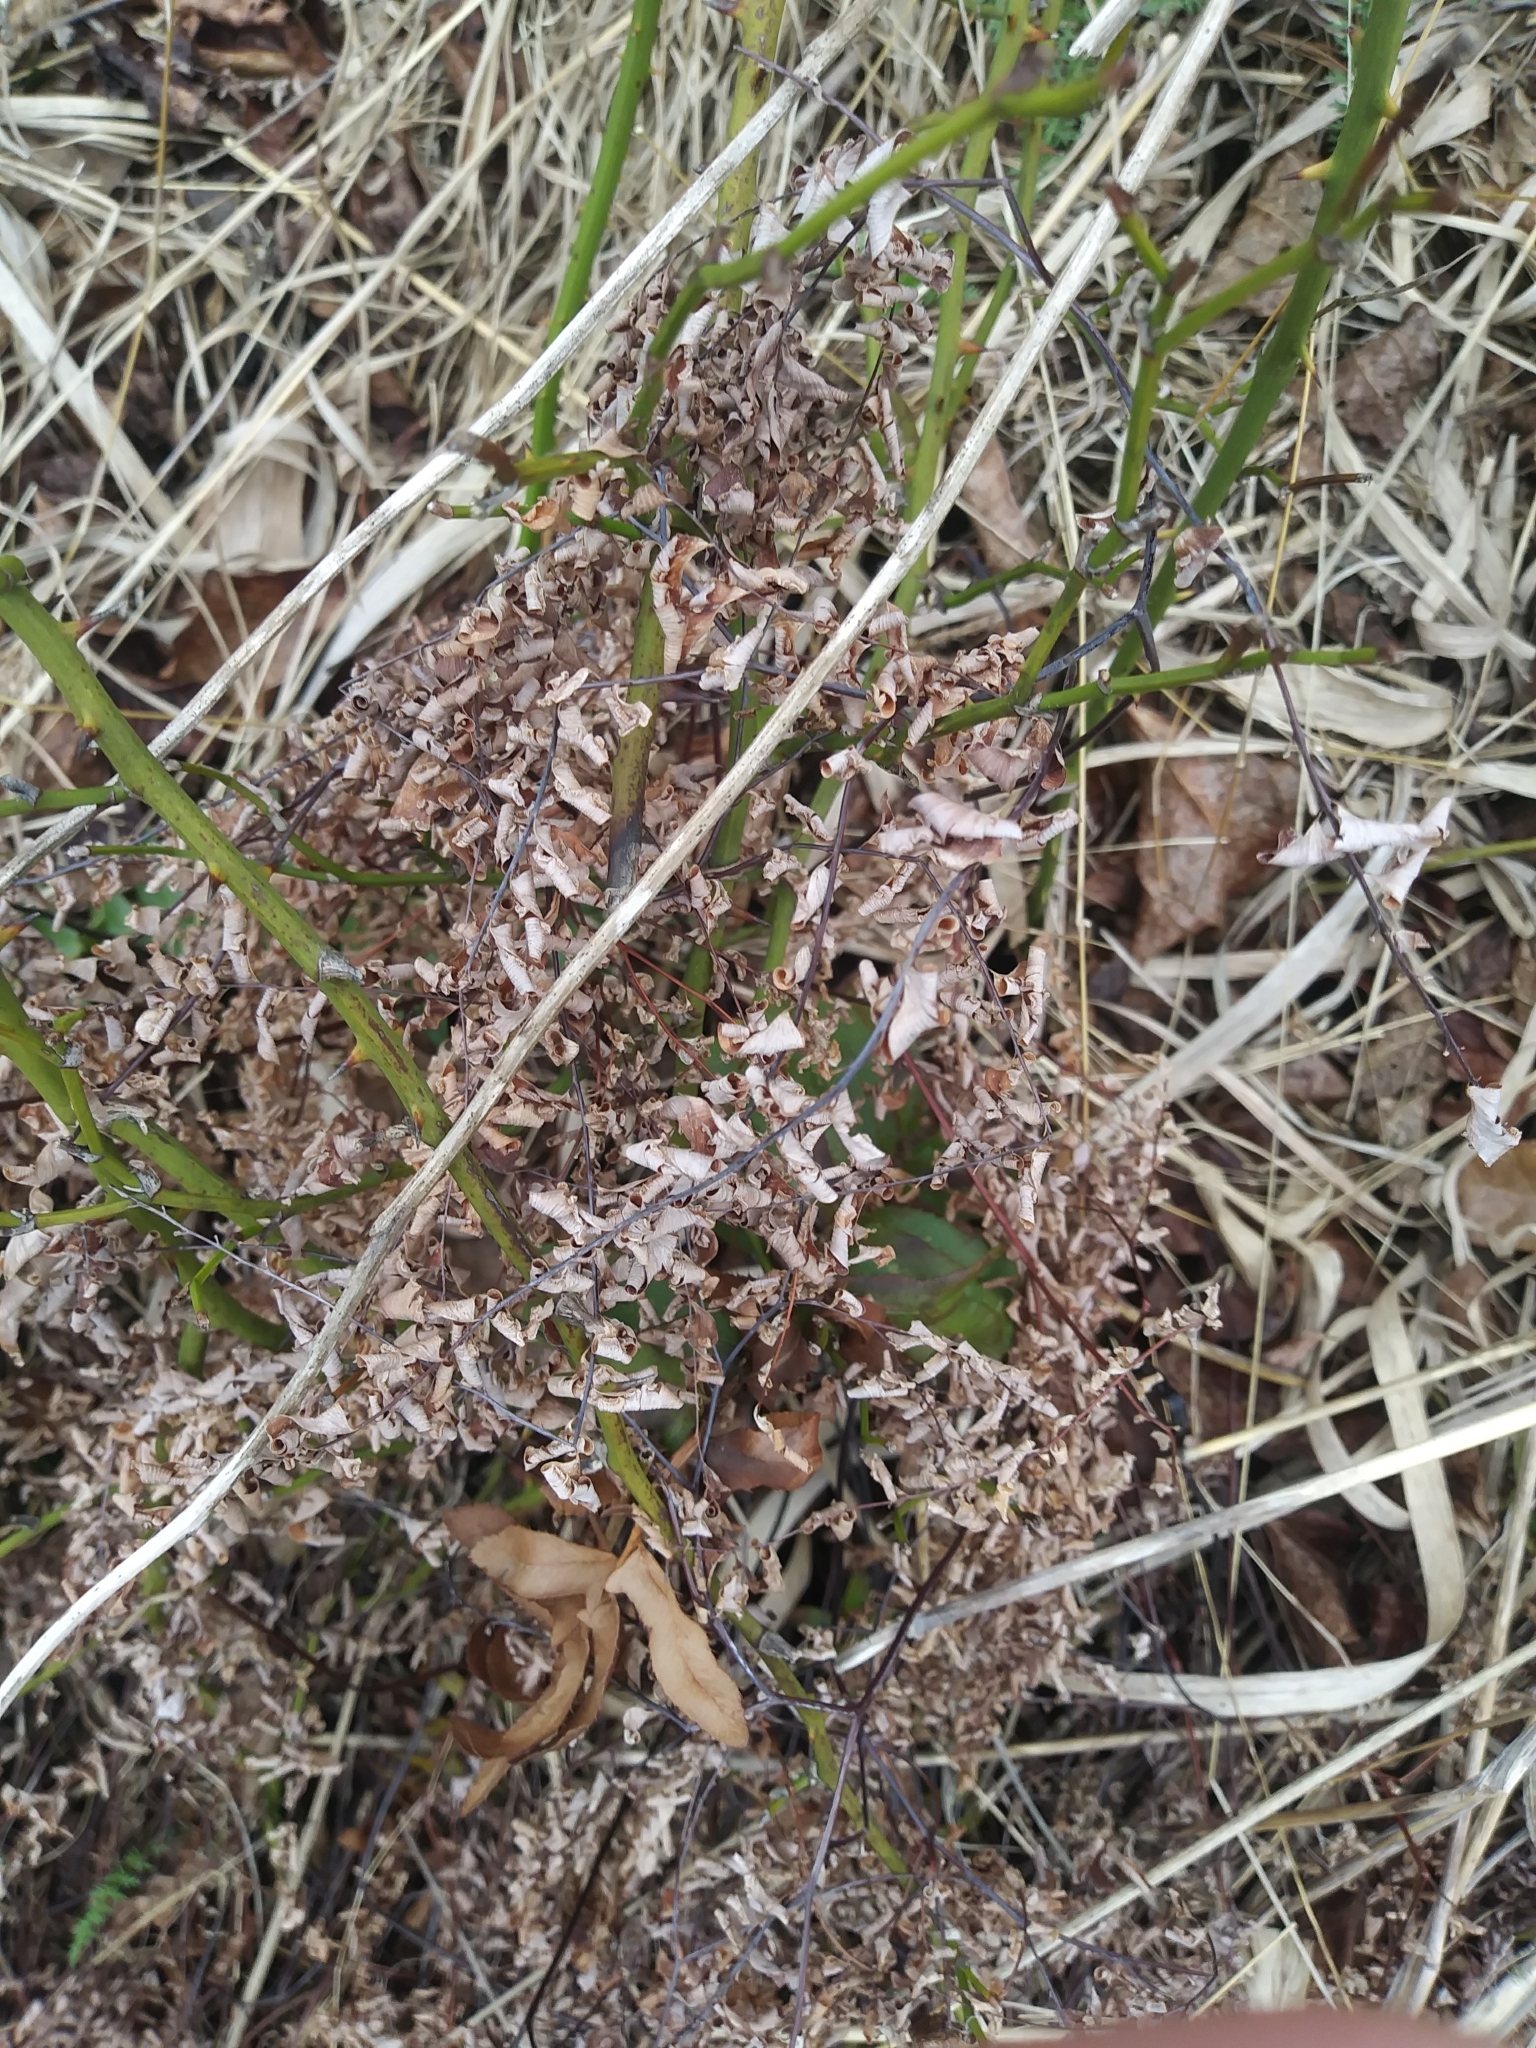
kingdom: Plantae
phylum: Tracheophyta
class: Polypodiopsida
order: Polypodiales
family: Pteridaceae
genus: Adiantum
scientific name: Adiantum pedatum
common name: Five-finger fern
